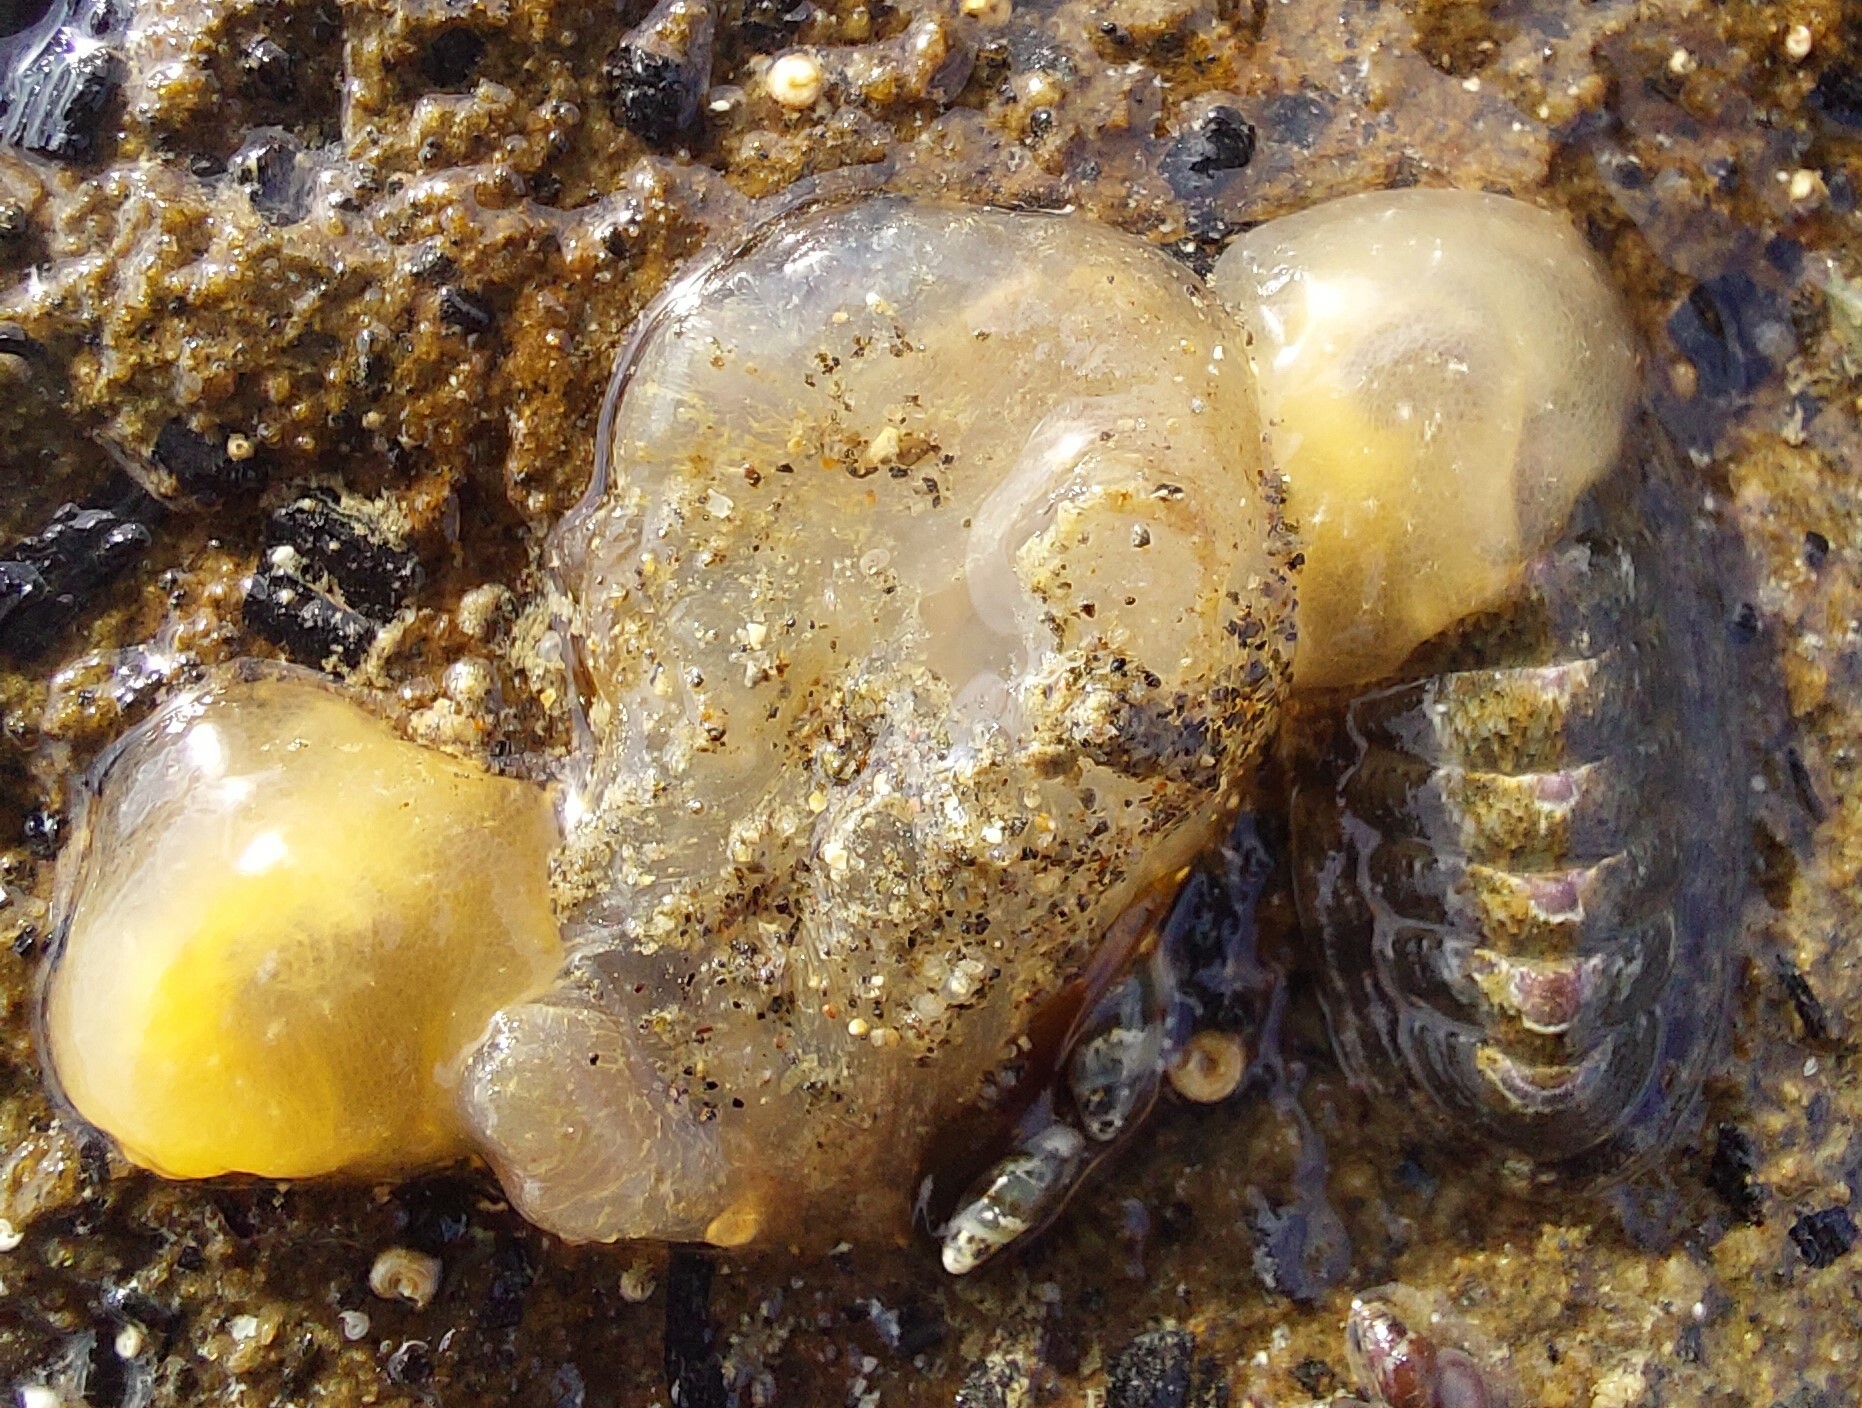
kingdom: Animalia
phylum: Mollusca
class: Gastropoda
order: Pleurobranchida
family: Pleurobranchidae
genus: Berthella
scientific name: Berthella medietas
